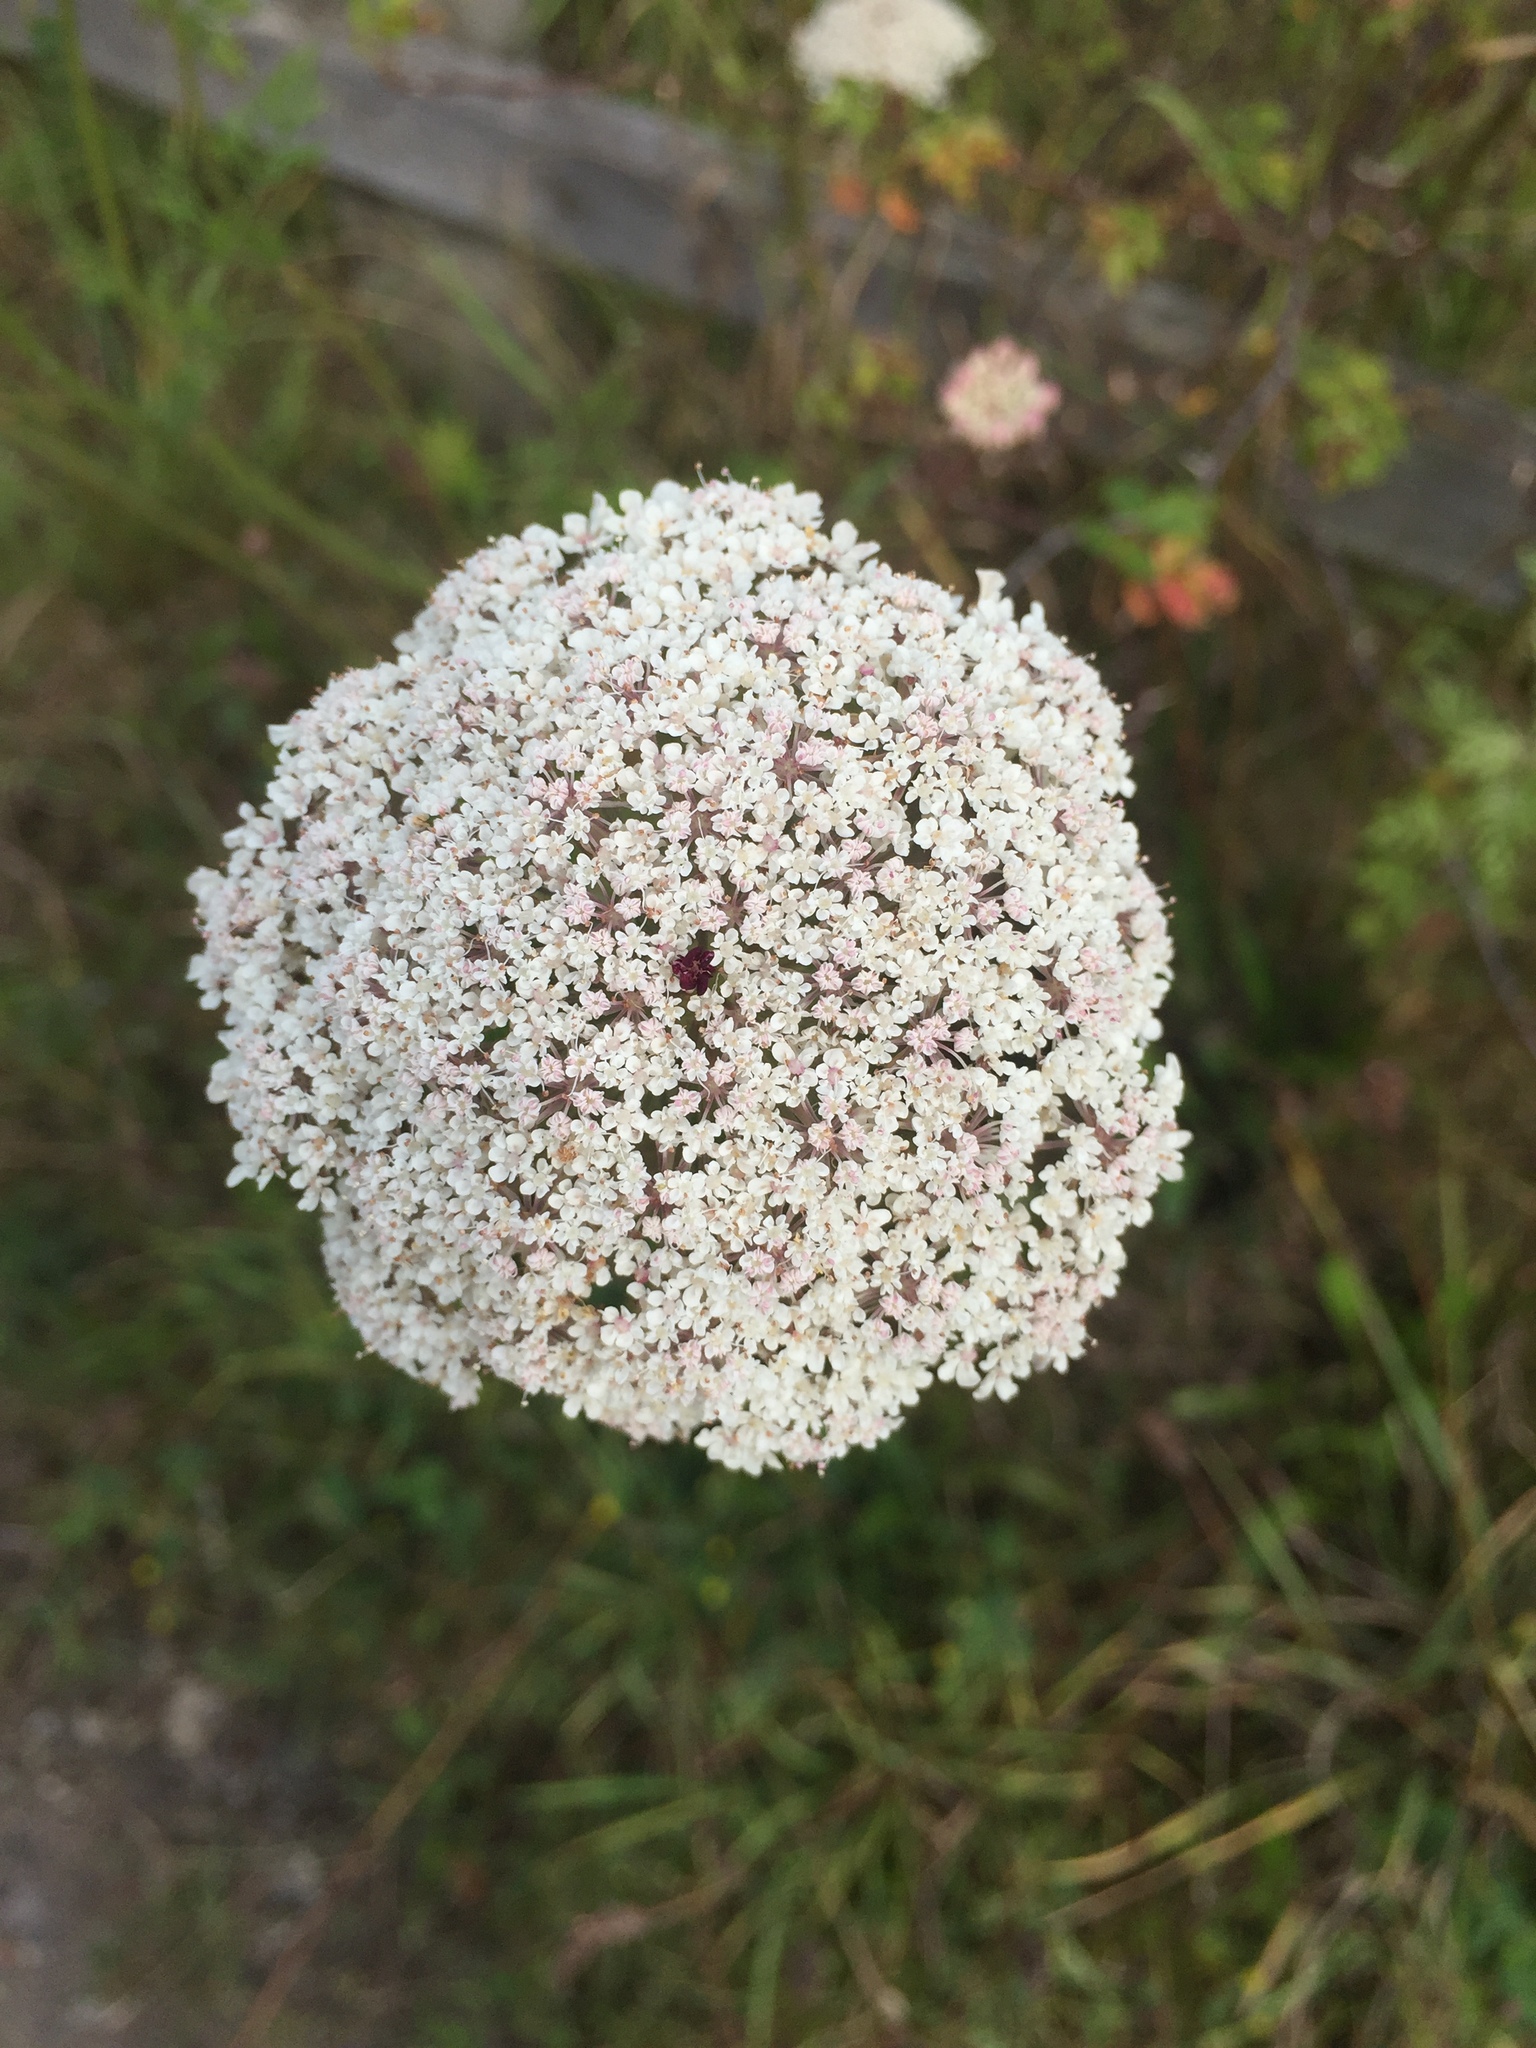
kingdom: Plantae
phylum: Tracheophyta
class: Magnoliopsida
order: Apiales
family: Apiaceae
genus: Daucus
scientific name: Daucus carota
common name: Wild carrot
